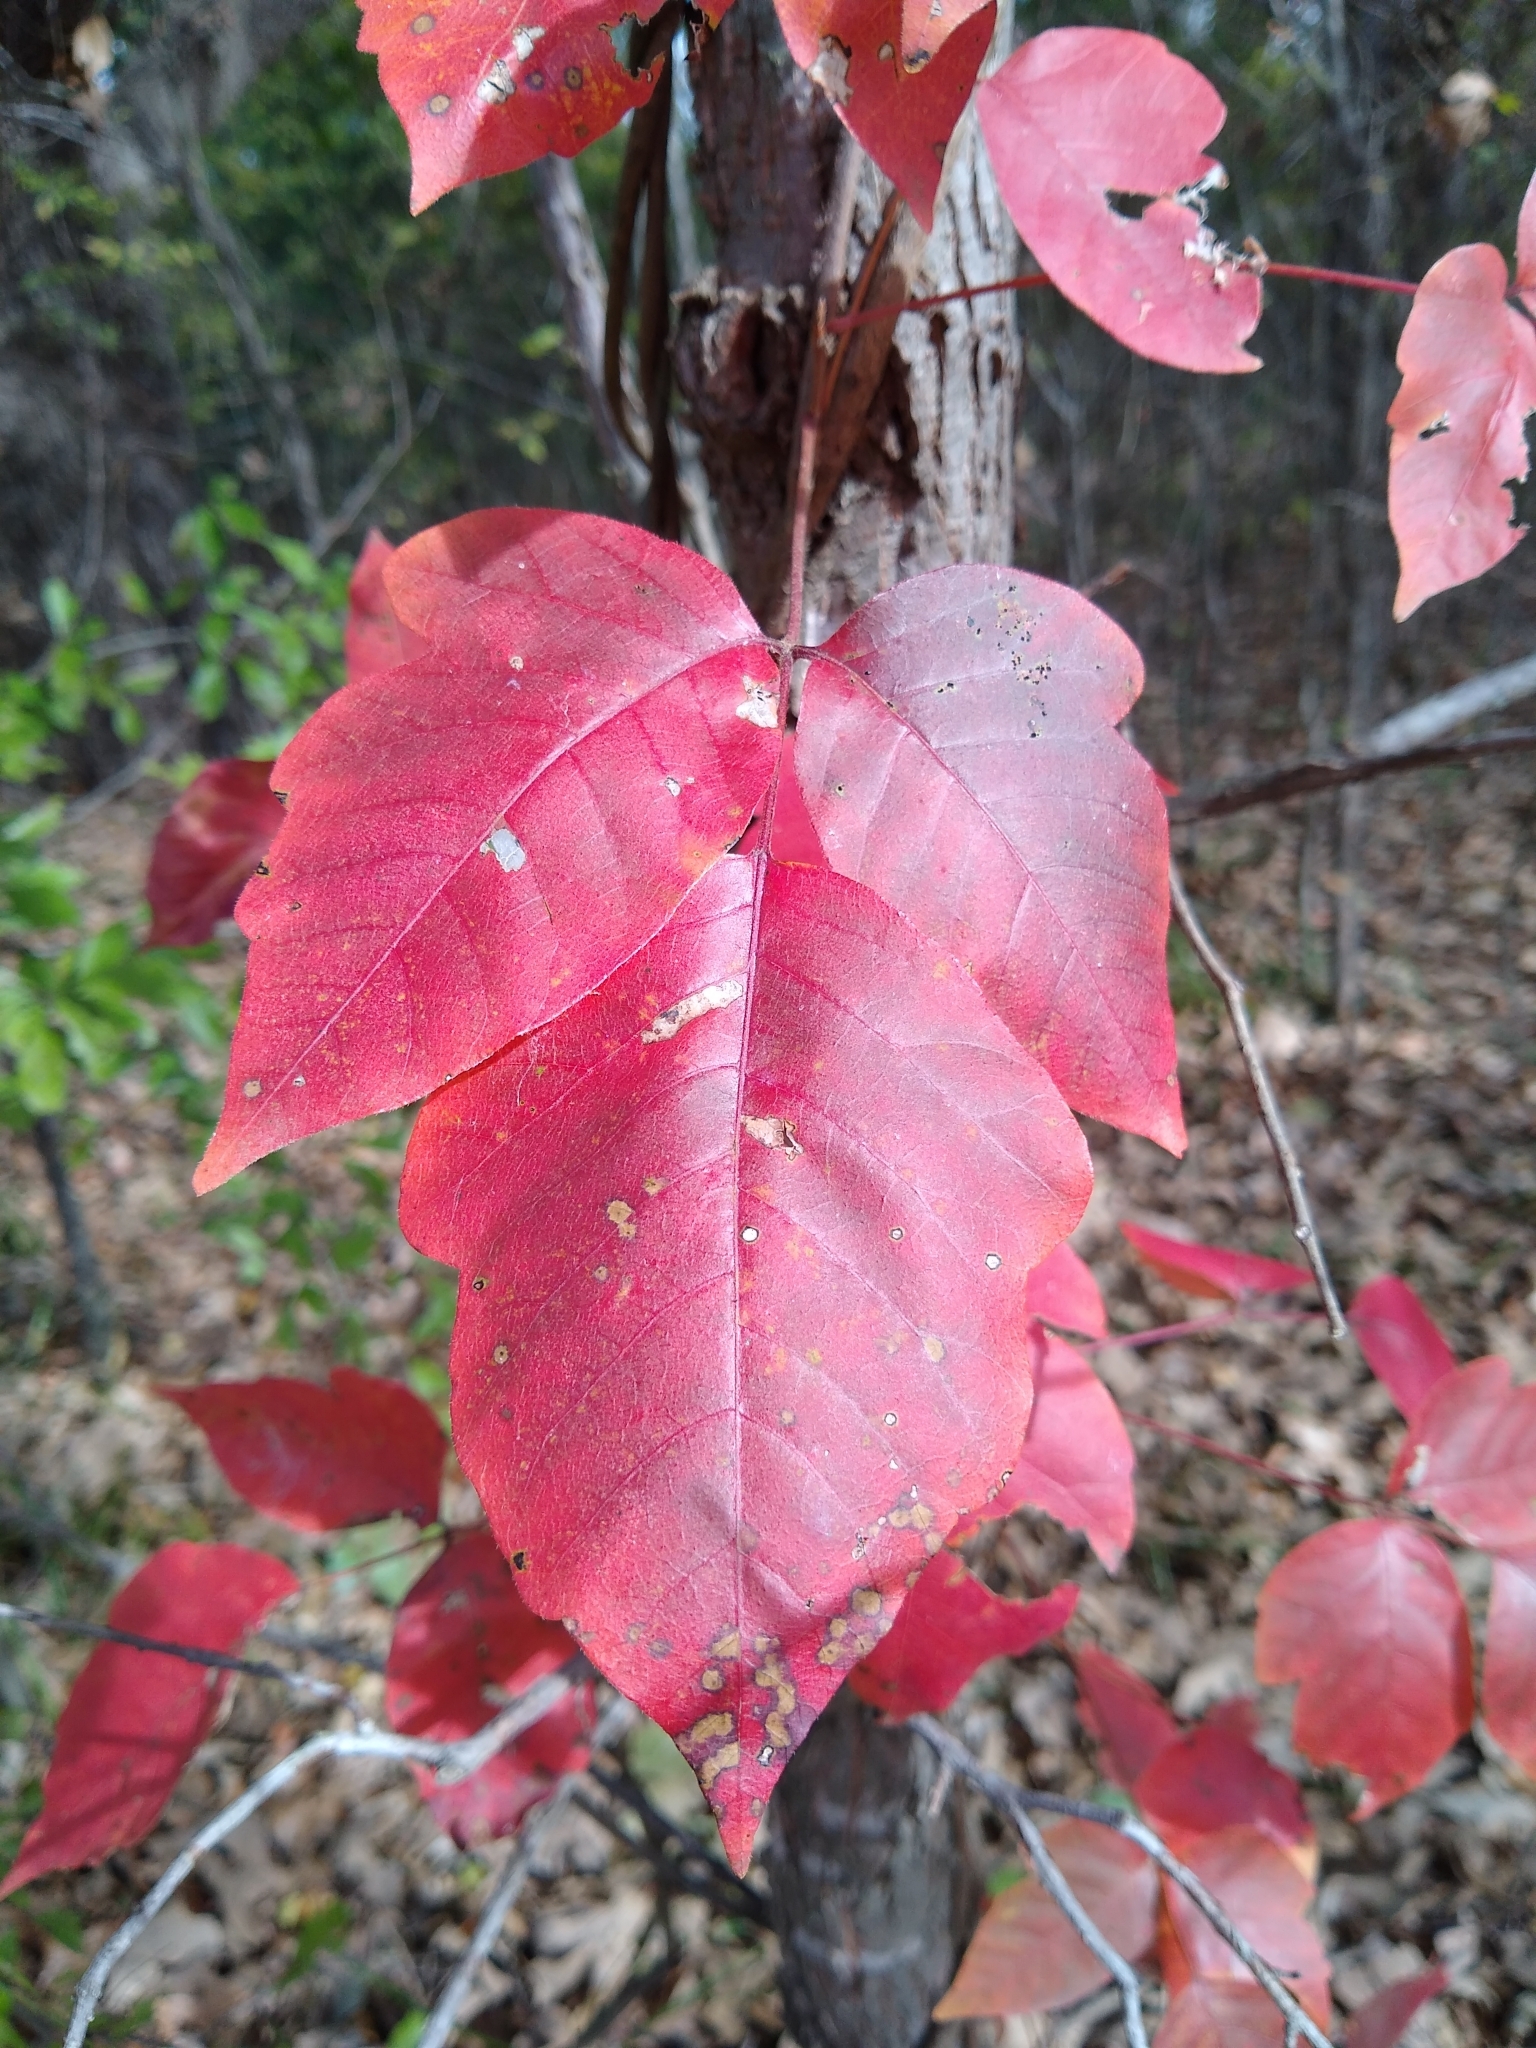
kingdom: Plantae
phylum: Tracheophyta
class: Magnoliopsida
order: Sapindales
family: Anacardiaceae
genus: Toxicodendron
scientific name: Toxicodendron radicans
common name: Poison ivy
